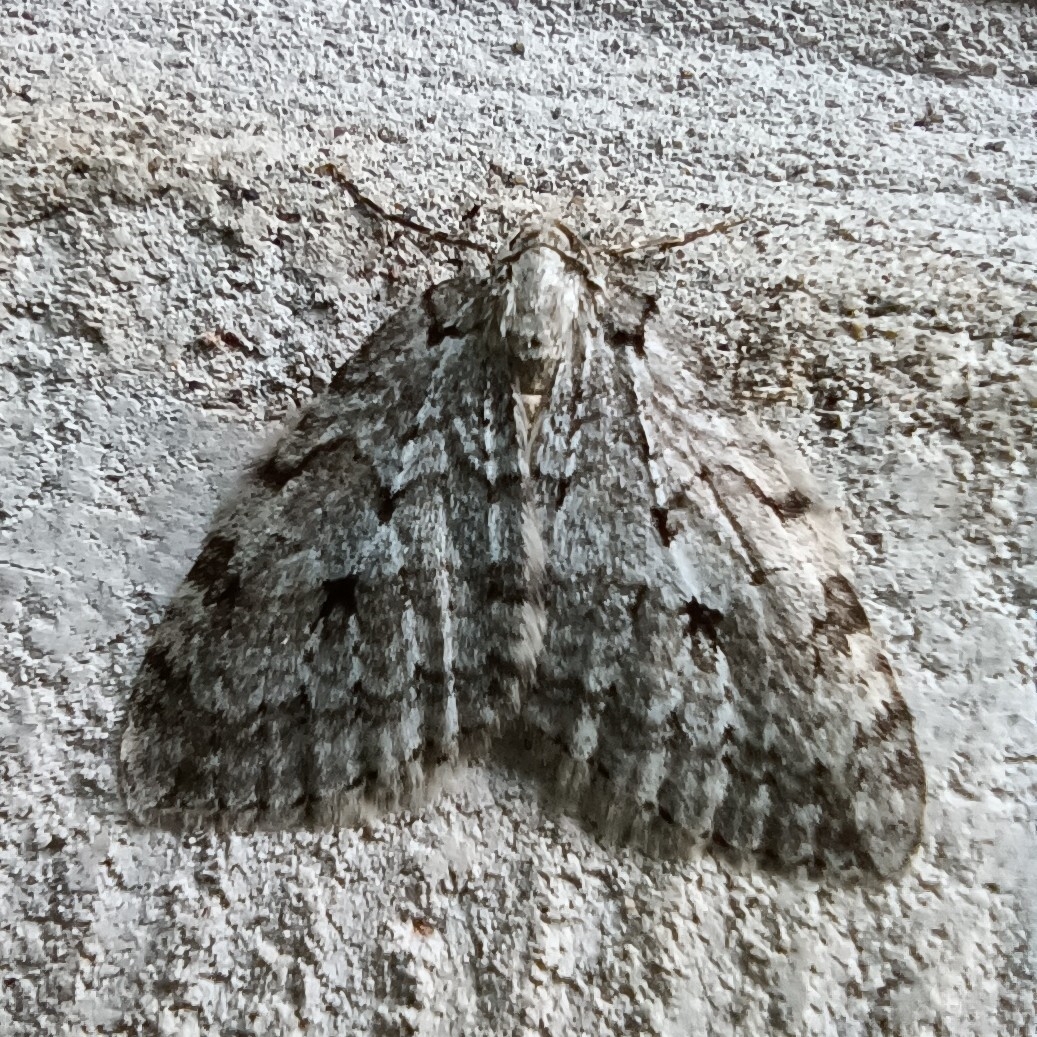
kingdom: Animalia
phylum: Arthropoda
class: Insecta
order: Lepidoptera
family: Geometridae
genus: Epirrita
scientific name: Epirrita autumnata
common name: Autumnal moth
